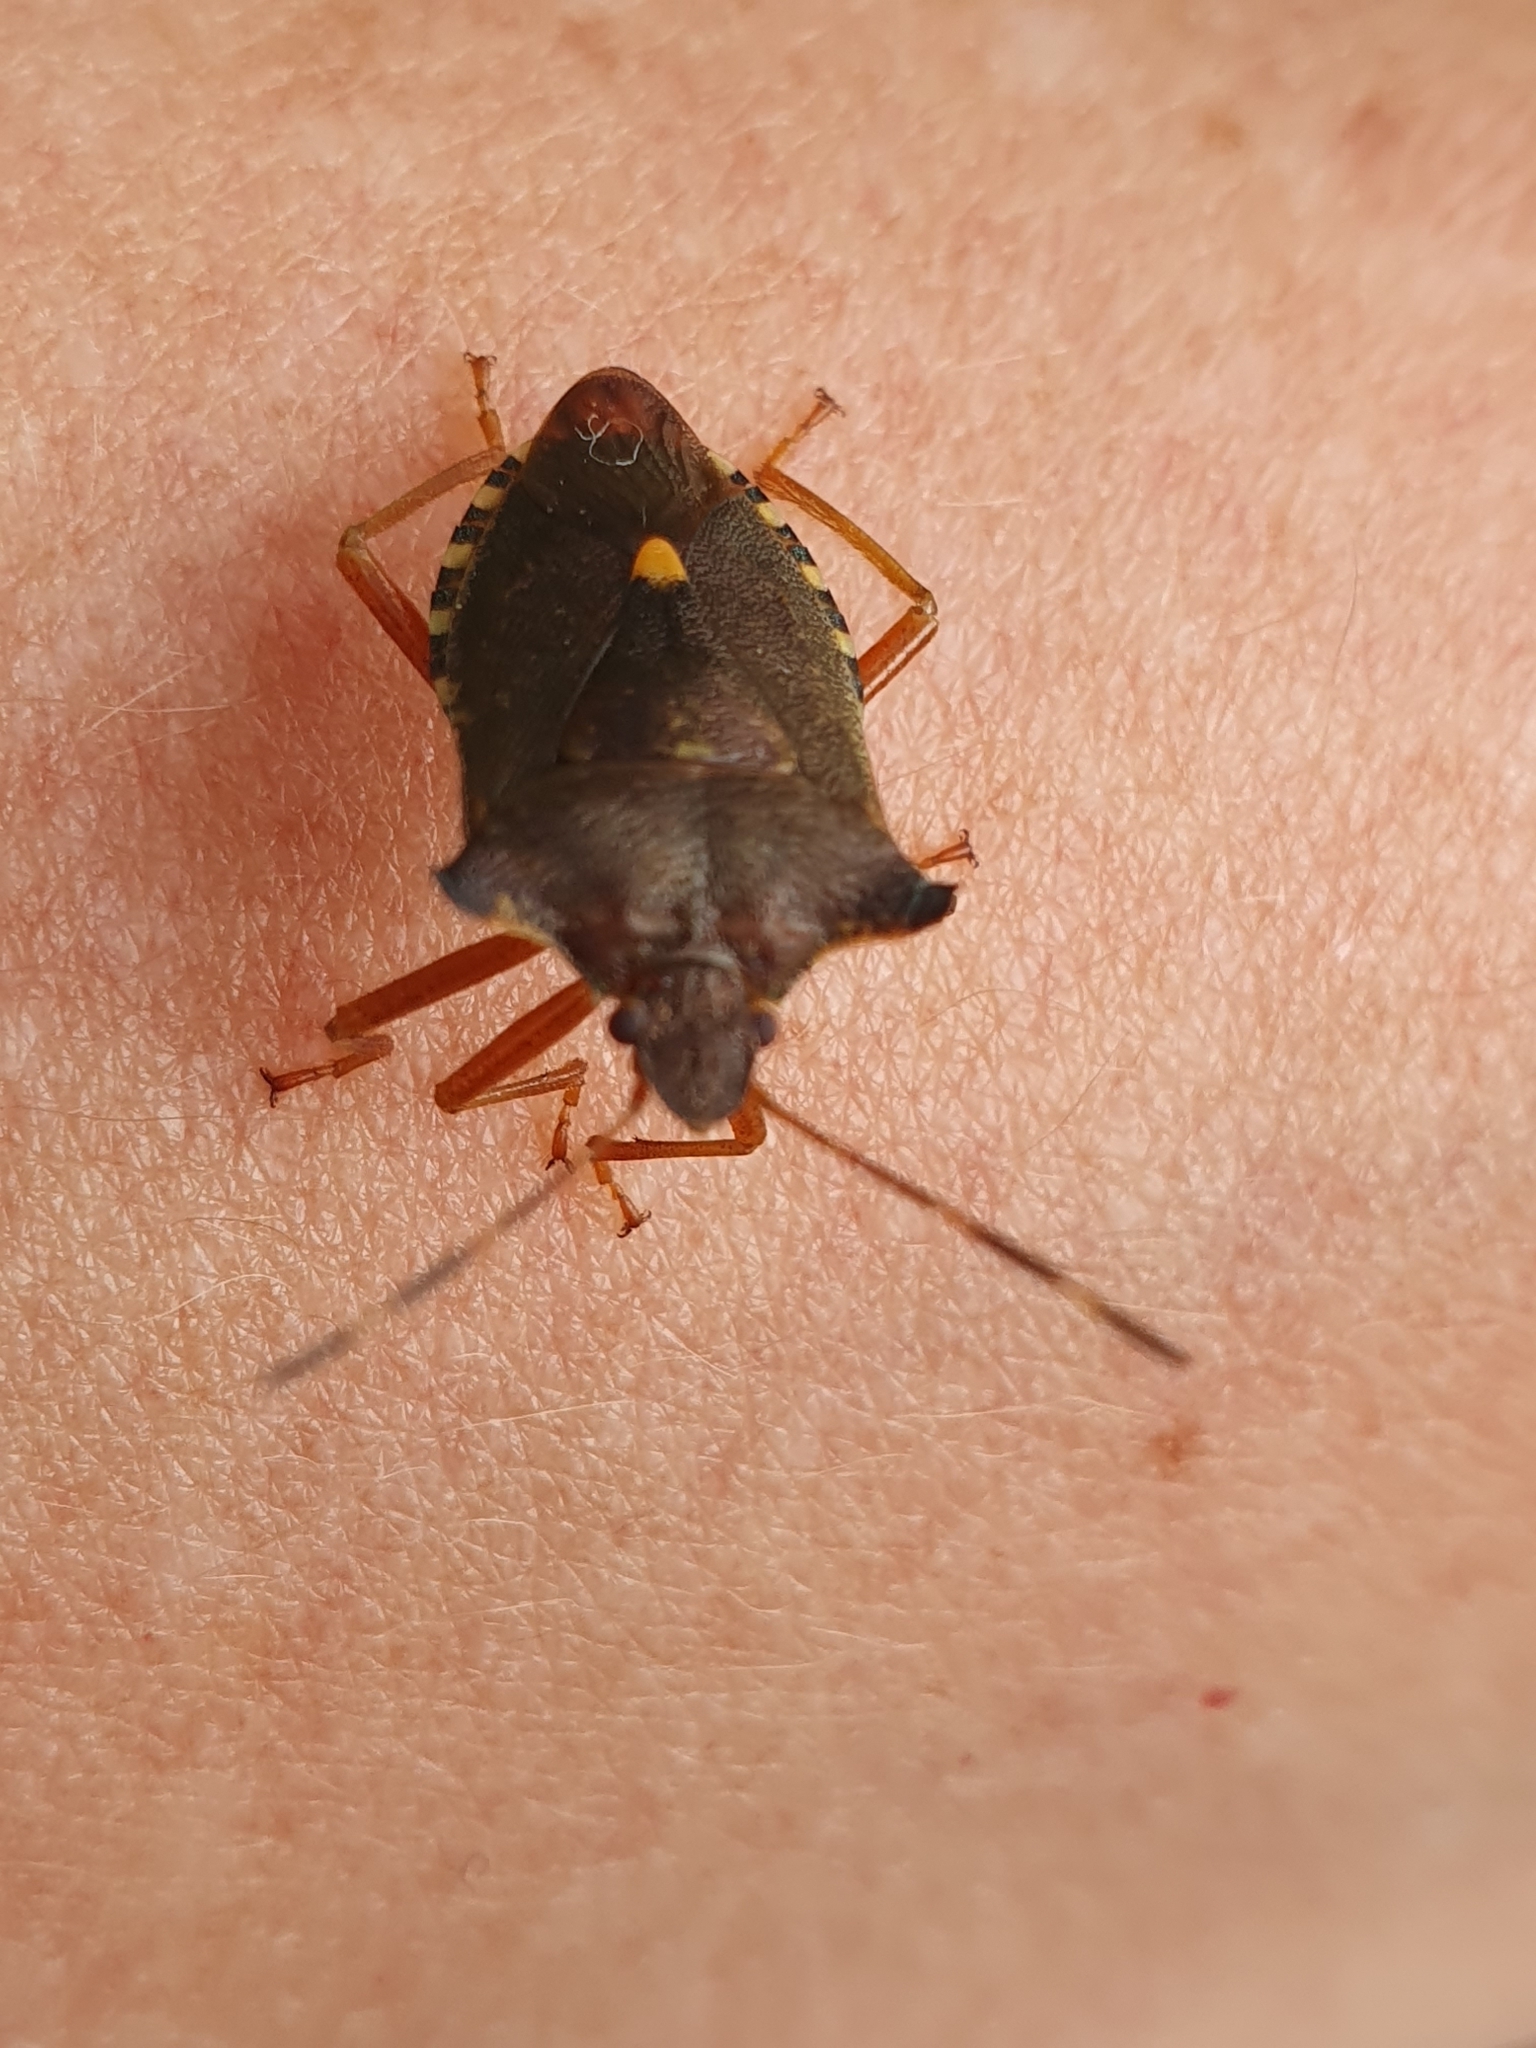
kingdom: Animalia
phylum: Arthropoda
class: Insecta
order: Hemiptera
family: Pentatomidae
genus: Pentatoma
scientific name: Pentatoma rufipes
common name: Forest bug
